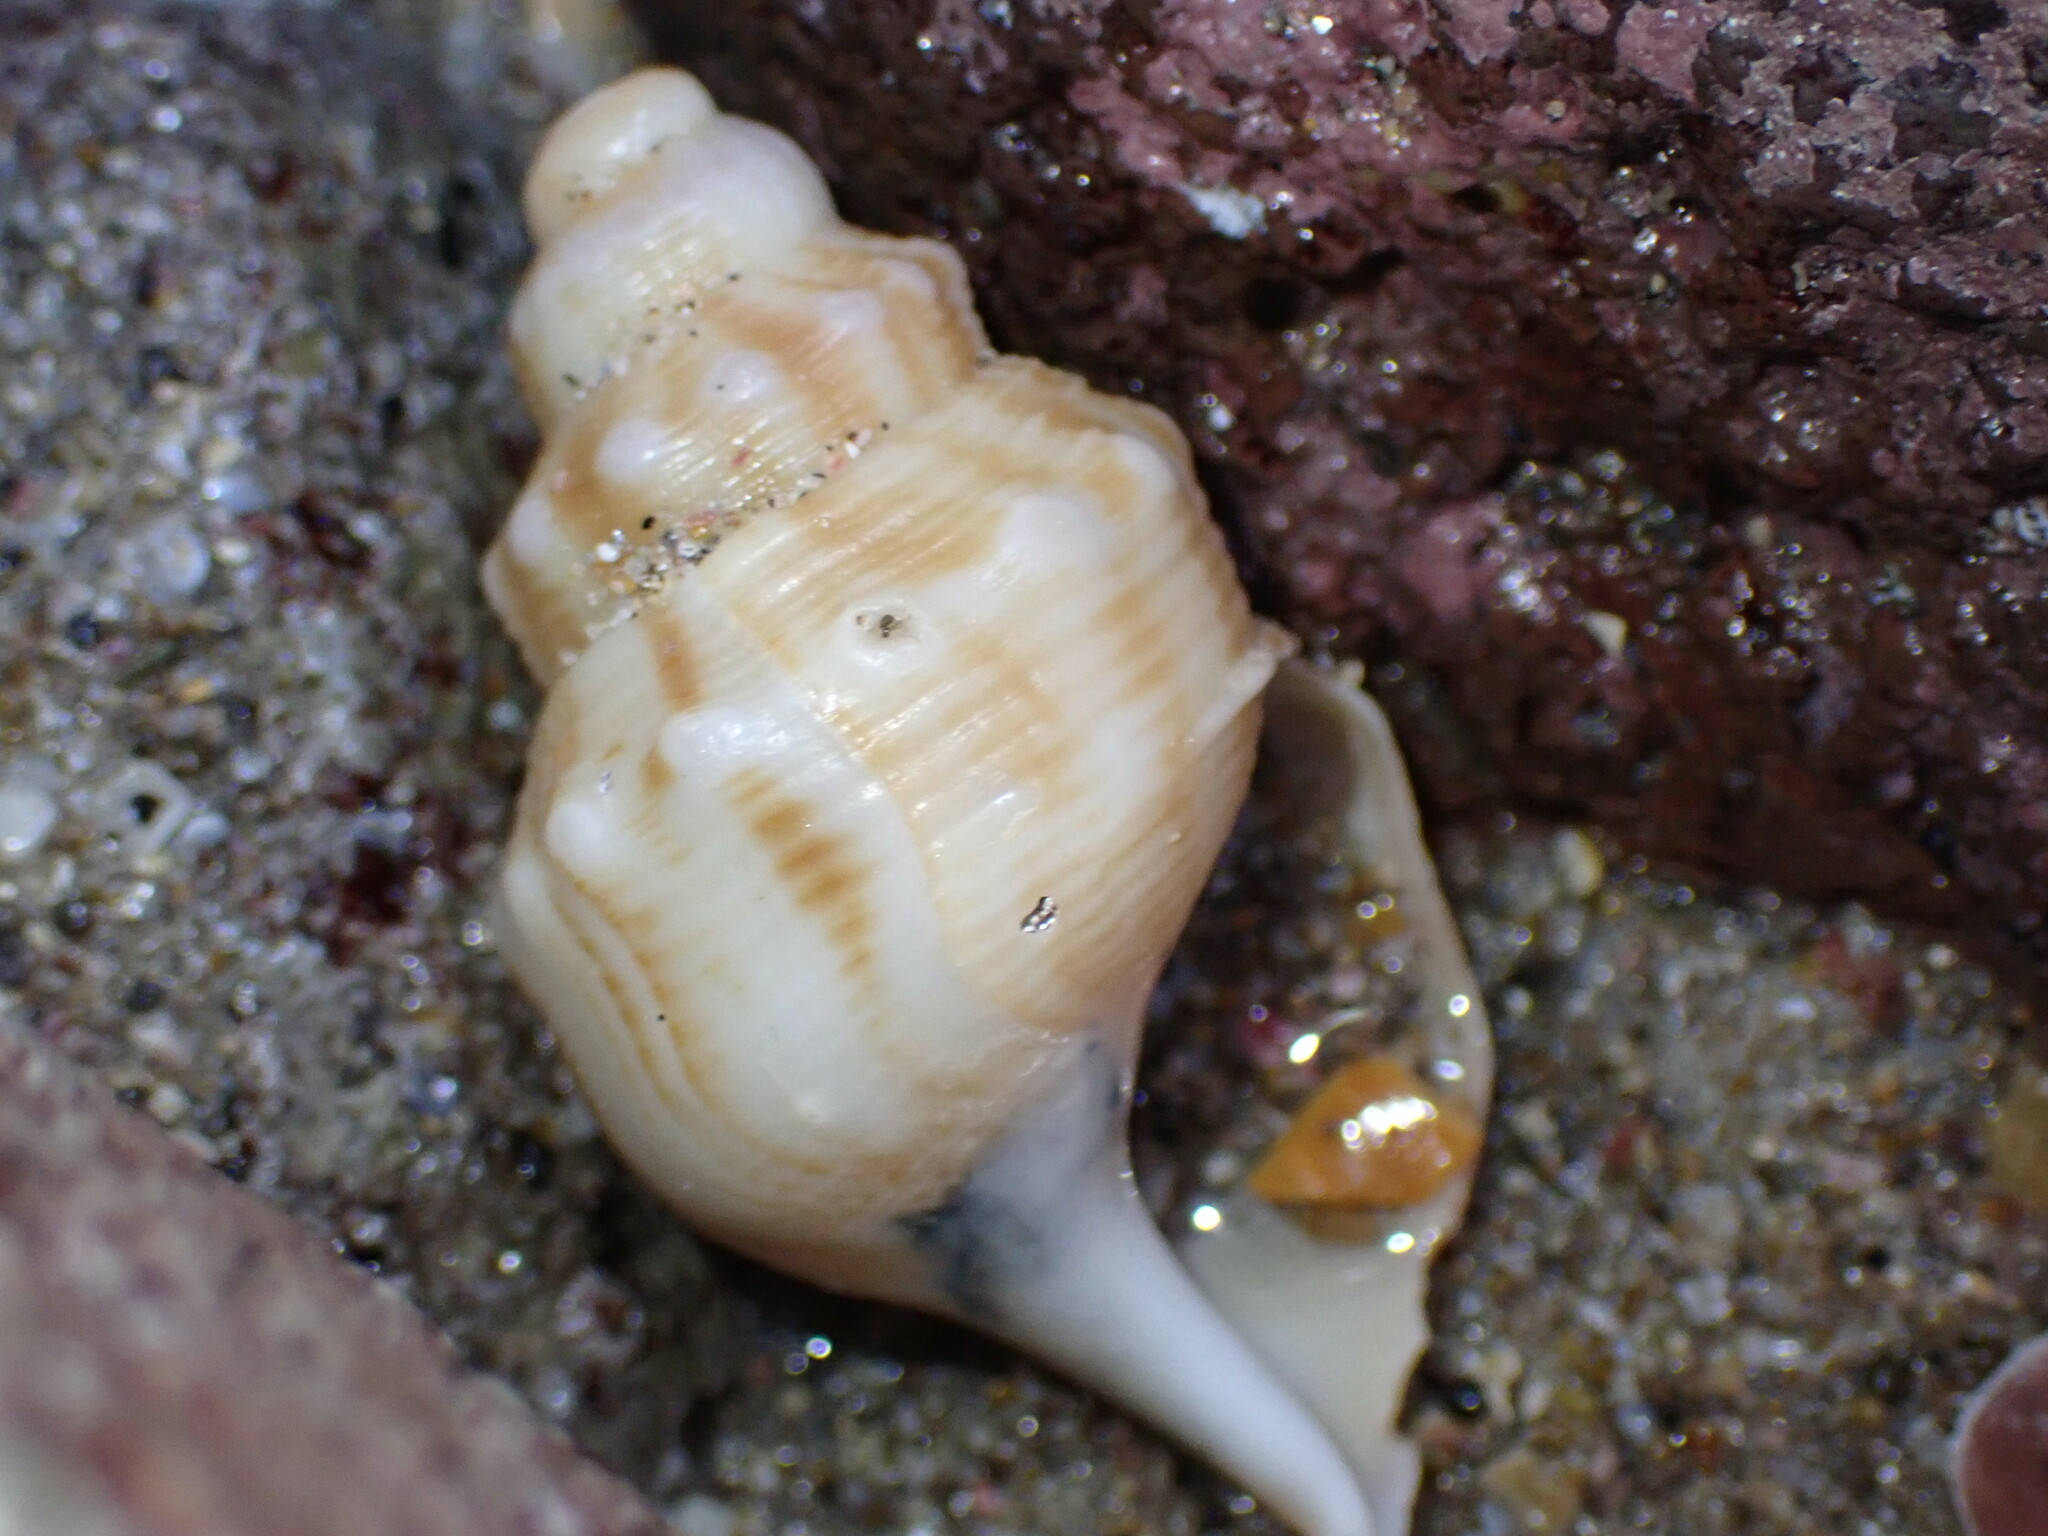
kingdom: Animalia
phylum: Mollusca
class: Gastropoda
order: Littorinimorpha
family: Struthiolariidae
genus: Struthiolaria
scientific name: Struthiolaria papulosa
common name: Large ostrich foot
